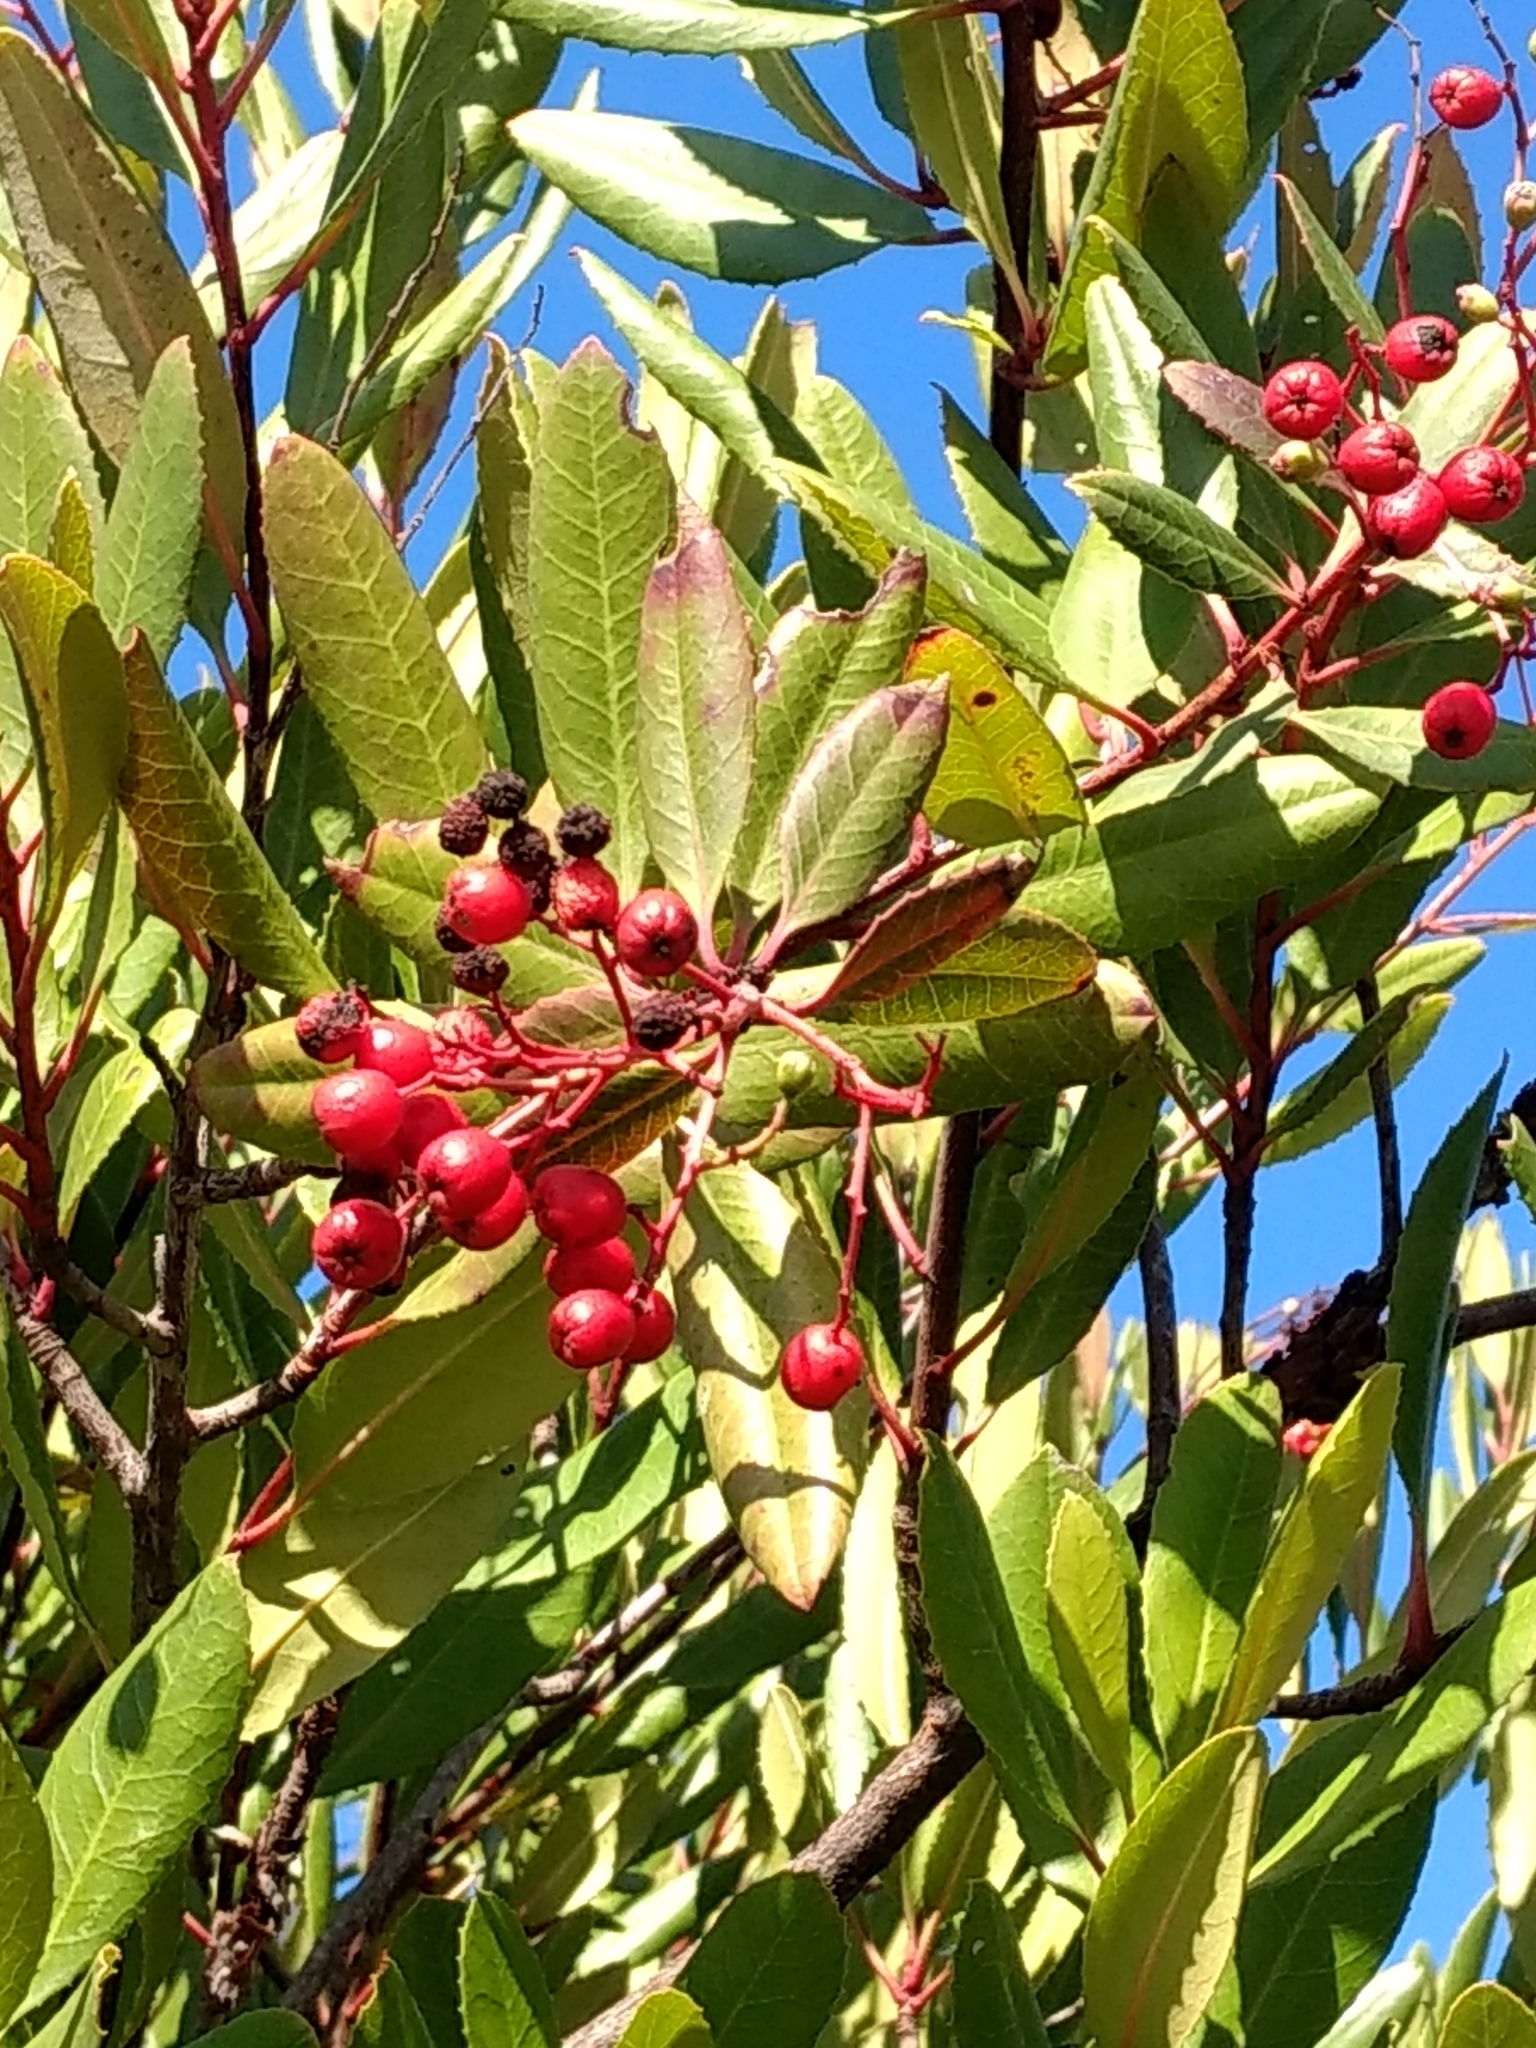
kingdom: Plantae
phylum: Tracheophyta
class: Magnoliopsida
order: Rosales
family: Rosaceae
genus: Heteromeles
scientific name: Heteromeles arbutifolia
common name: California-holly
